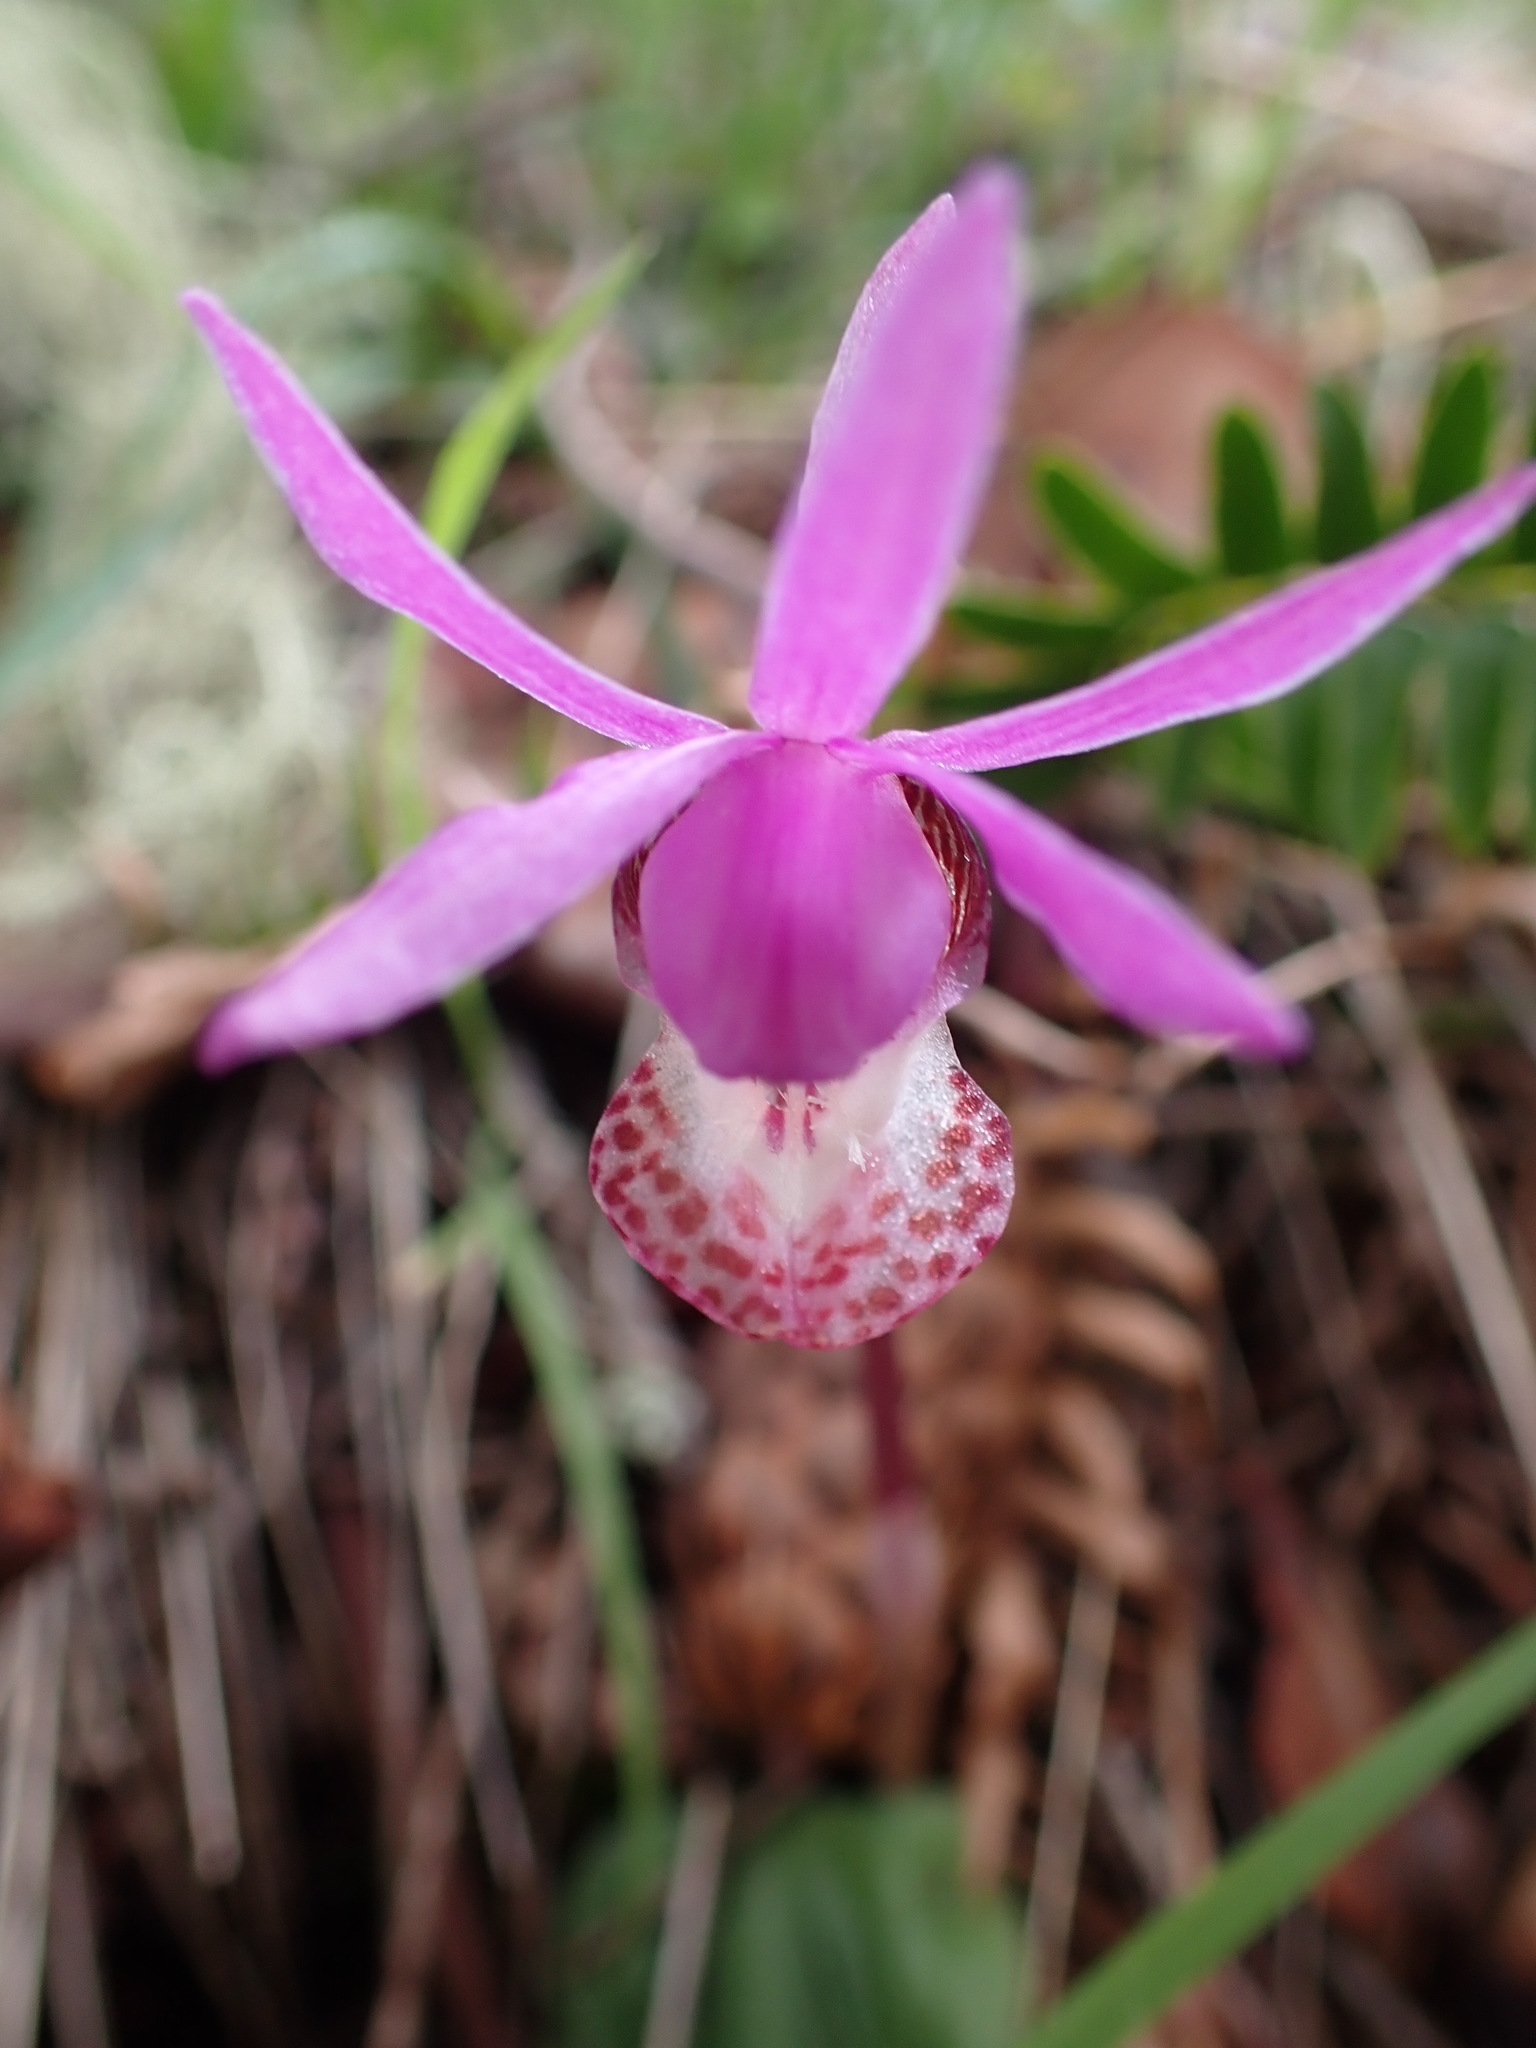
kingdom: Plantae
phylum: Tracheophyta
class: Liliopsida
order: Asparagales
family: Orchidaceae
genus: Calypso
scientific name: Calypso bulbosa
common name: Calypso
